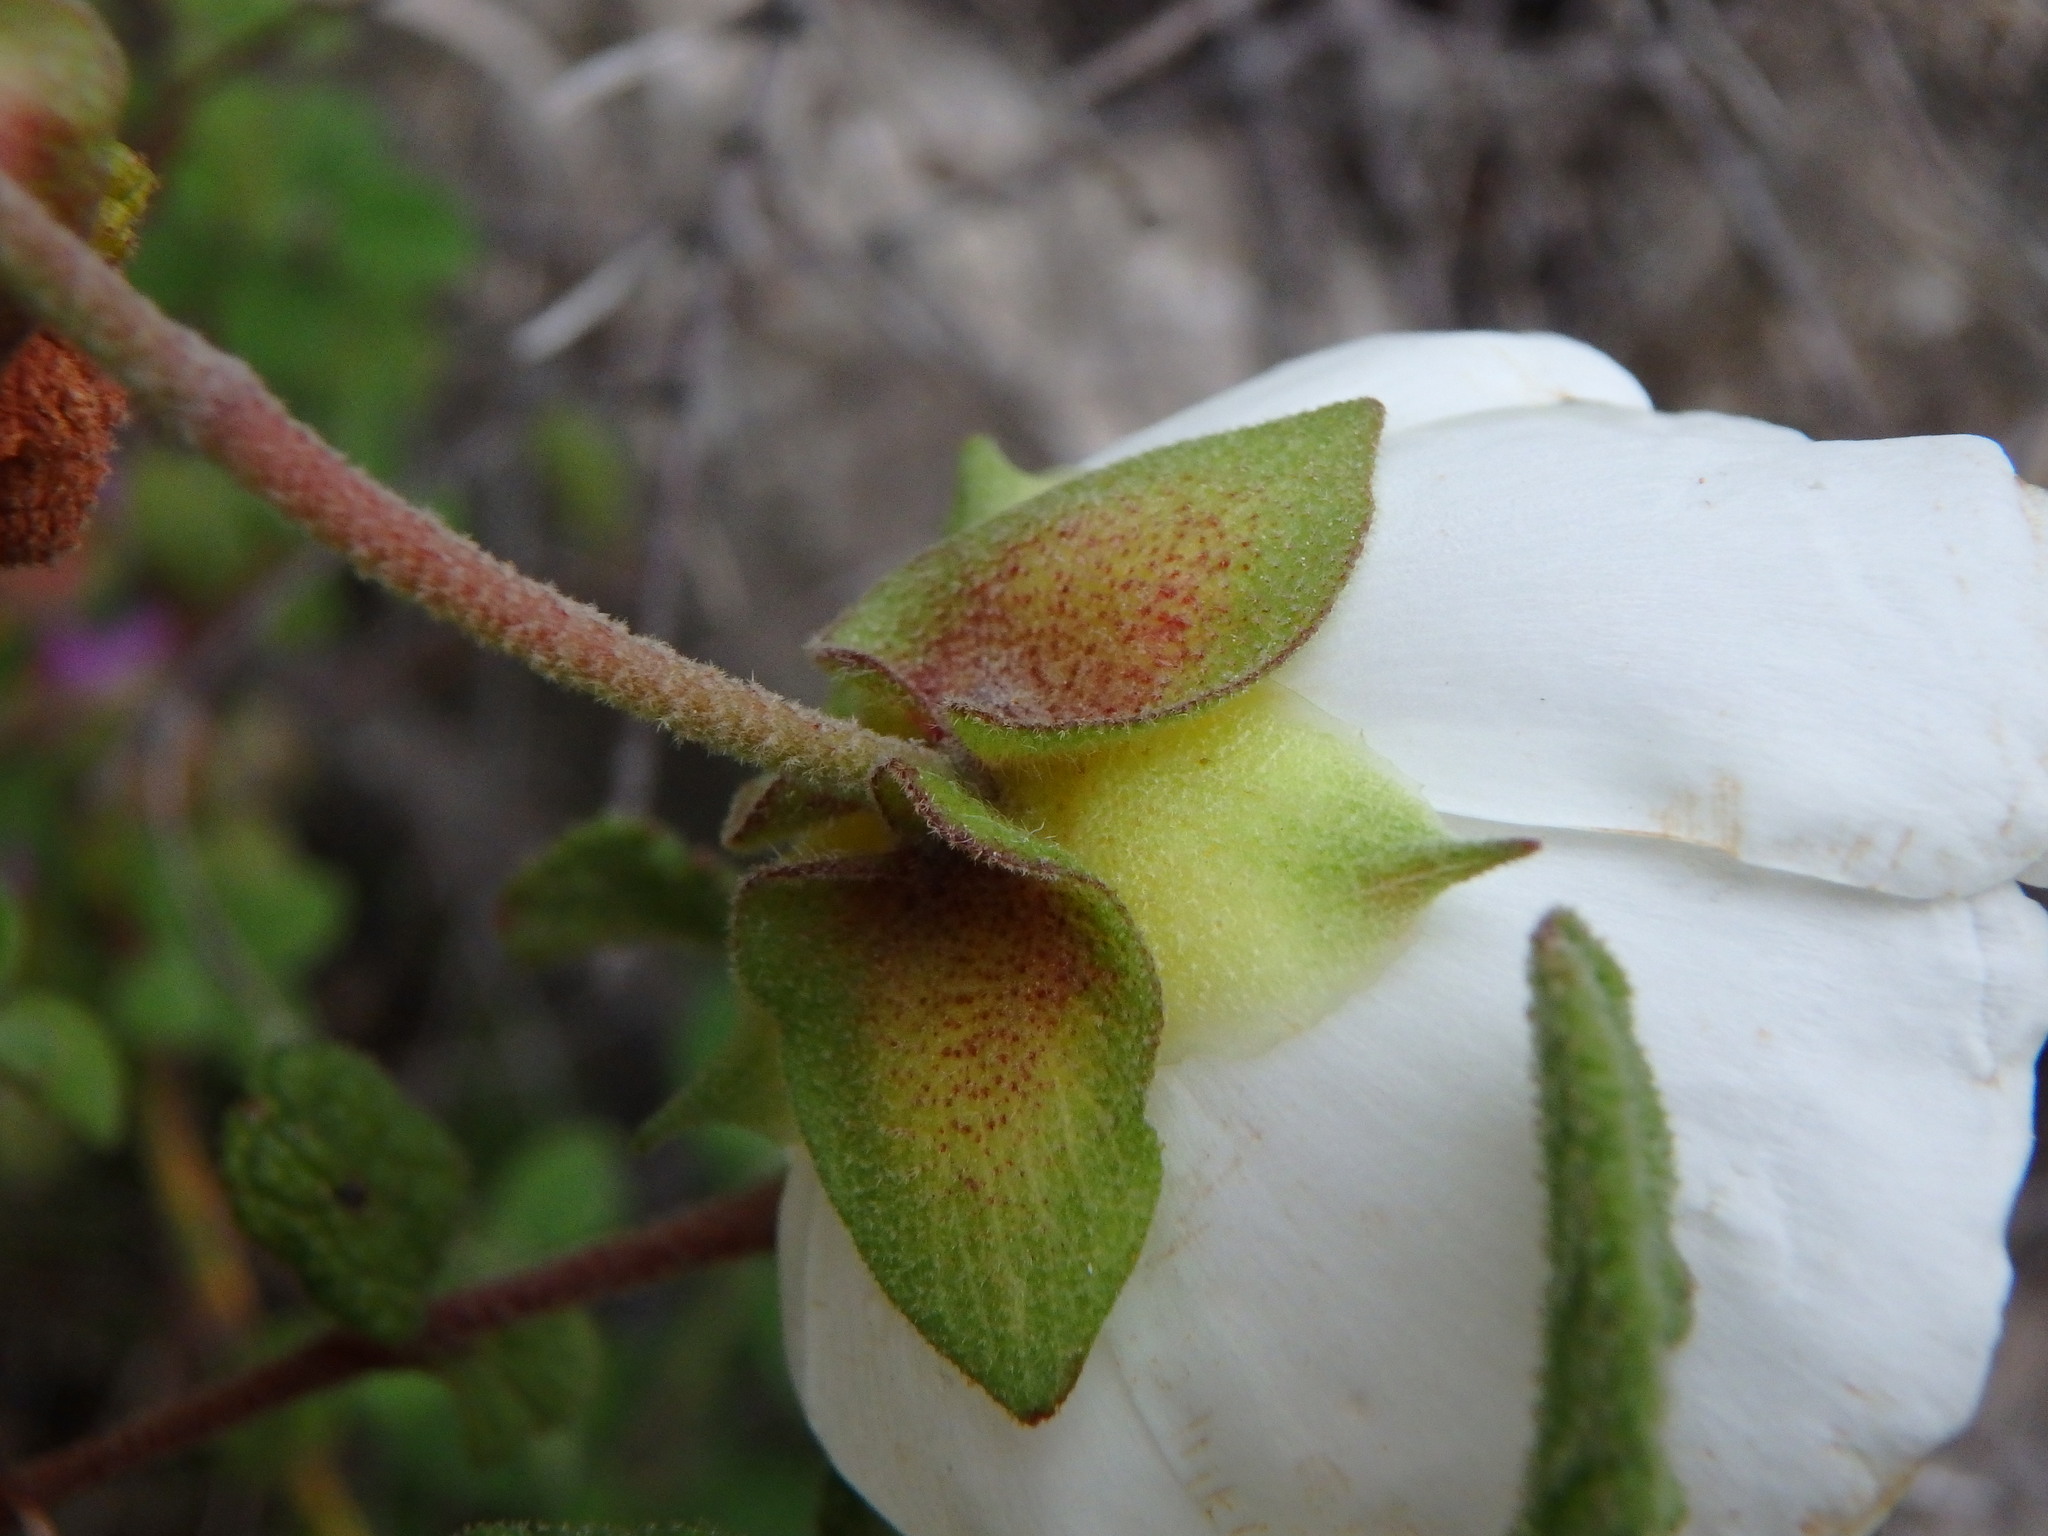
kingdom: Plantae
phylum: Tracheophyta
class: Magnoliopsida
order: Malvales
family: Cistaceae
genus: Cistus
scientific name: Cistus salviifolius
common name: Salvia cistus
